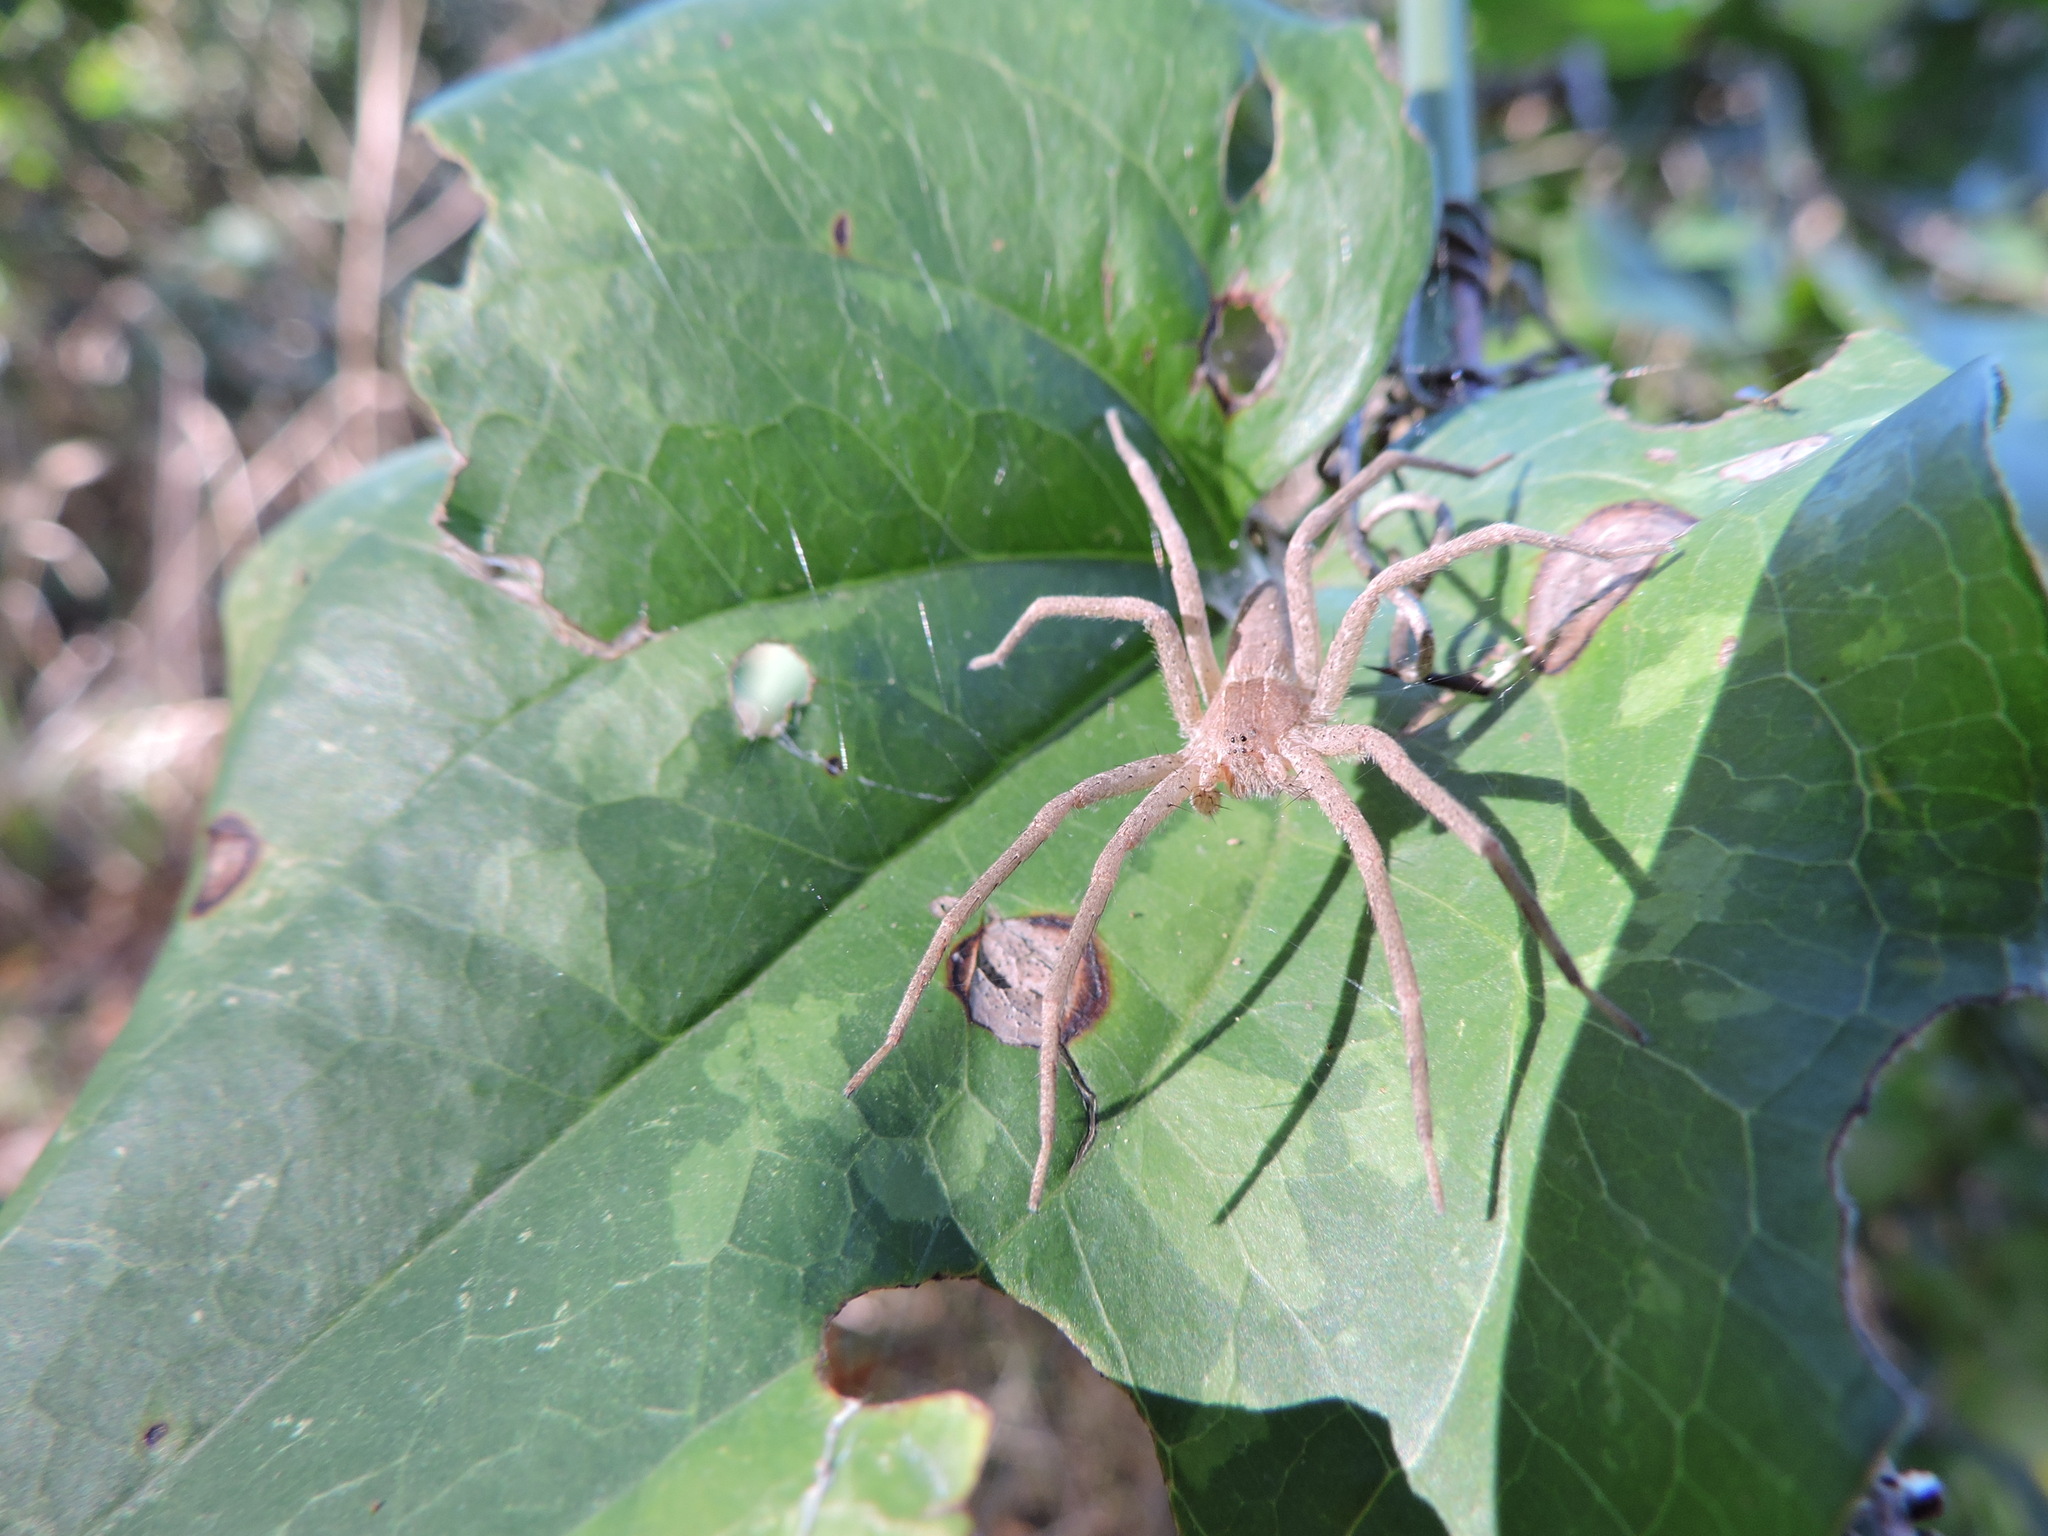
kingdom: Animalia
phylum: Arthropoda
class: Arachnida
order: Araneae
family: Pisauridae
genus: Pisaurina
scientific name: Pisaurina mira
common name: American nursery web spider
